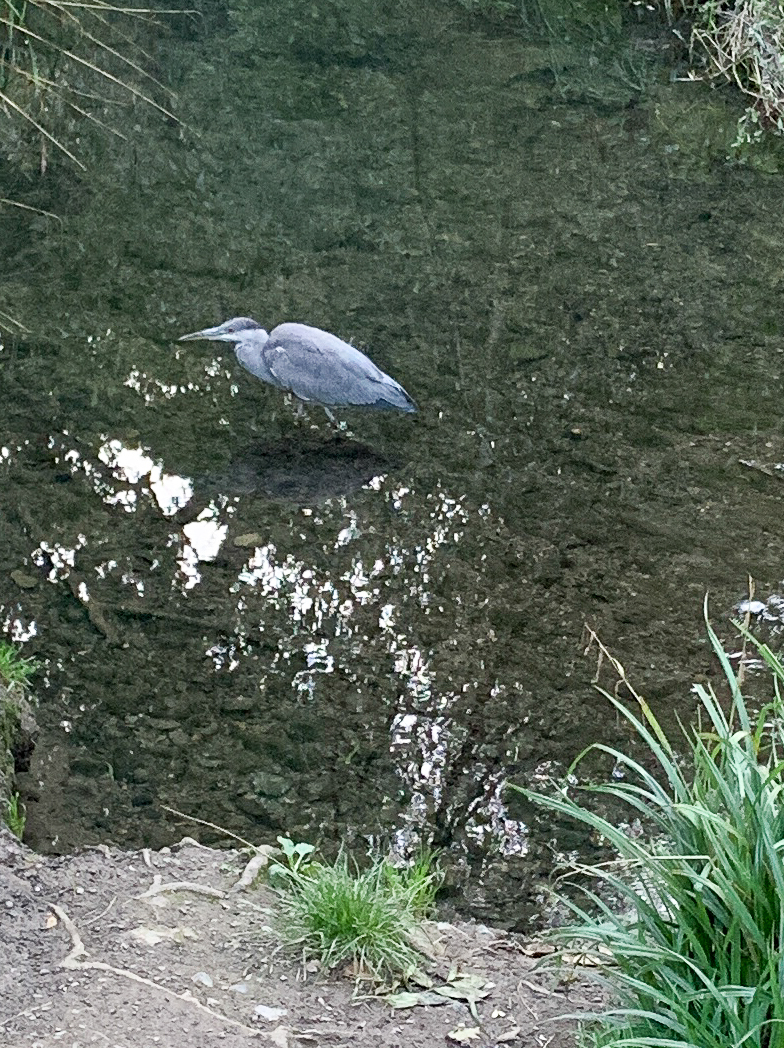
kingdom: Animalia
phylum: Chordata
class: Aves
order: Pelecaniformes
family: Ardeidae
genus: Ardea
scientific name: Ardea cinerea
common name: Grey heron
